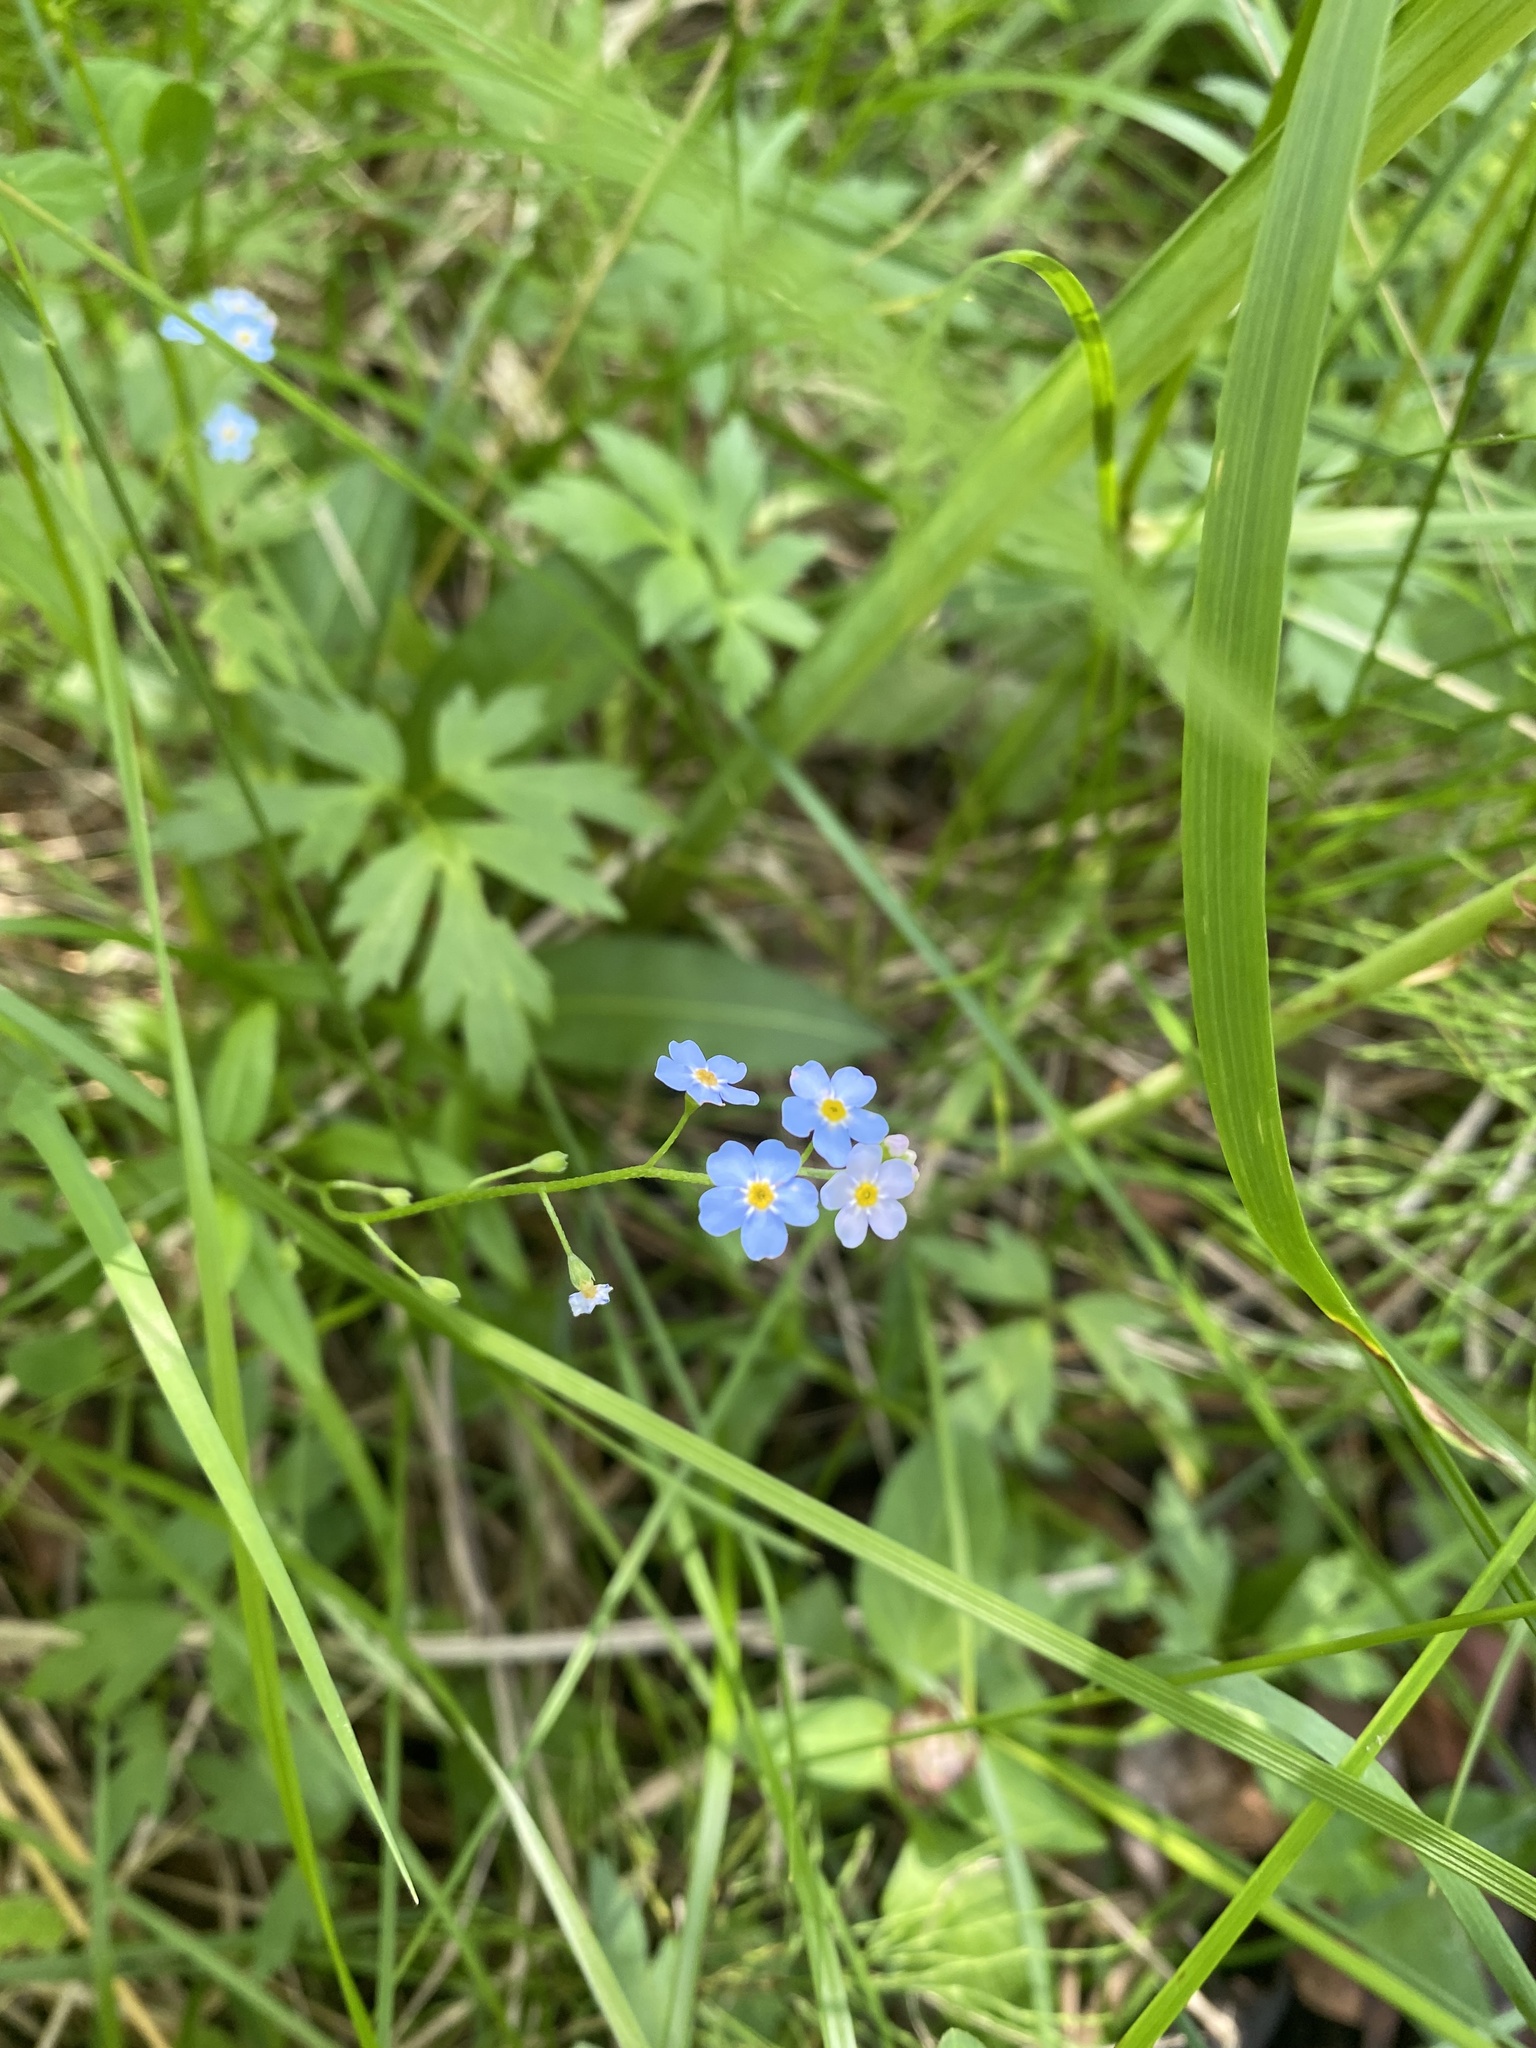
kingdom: Plantae
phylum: Tracheophyta
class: Magnoliopsida
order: Boraginales
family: Boraginaceae
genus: Myosotis
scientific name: Myosotis scorpioides
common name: Water forget-me-not
